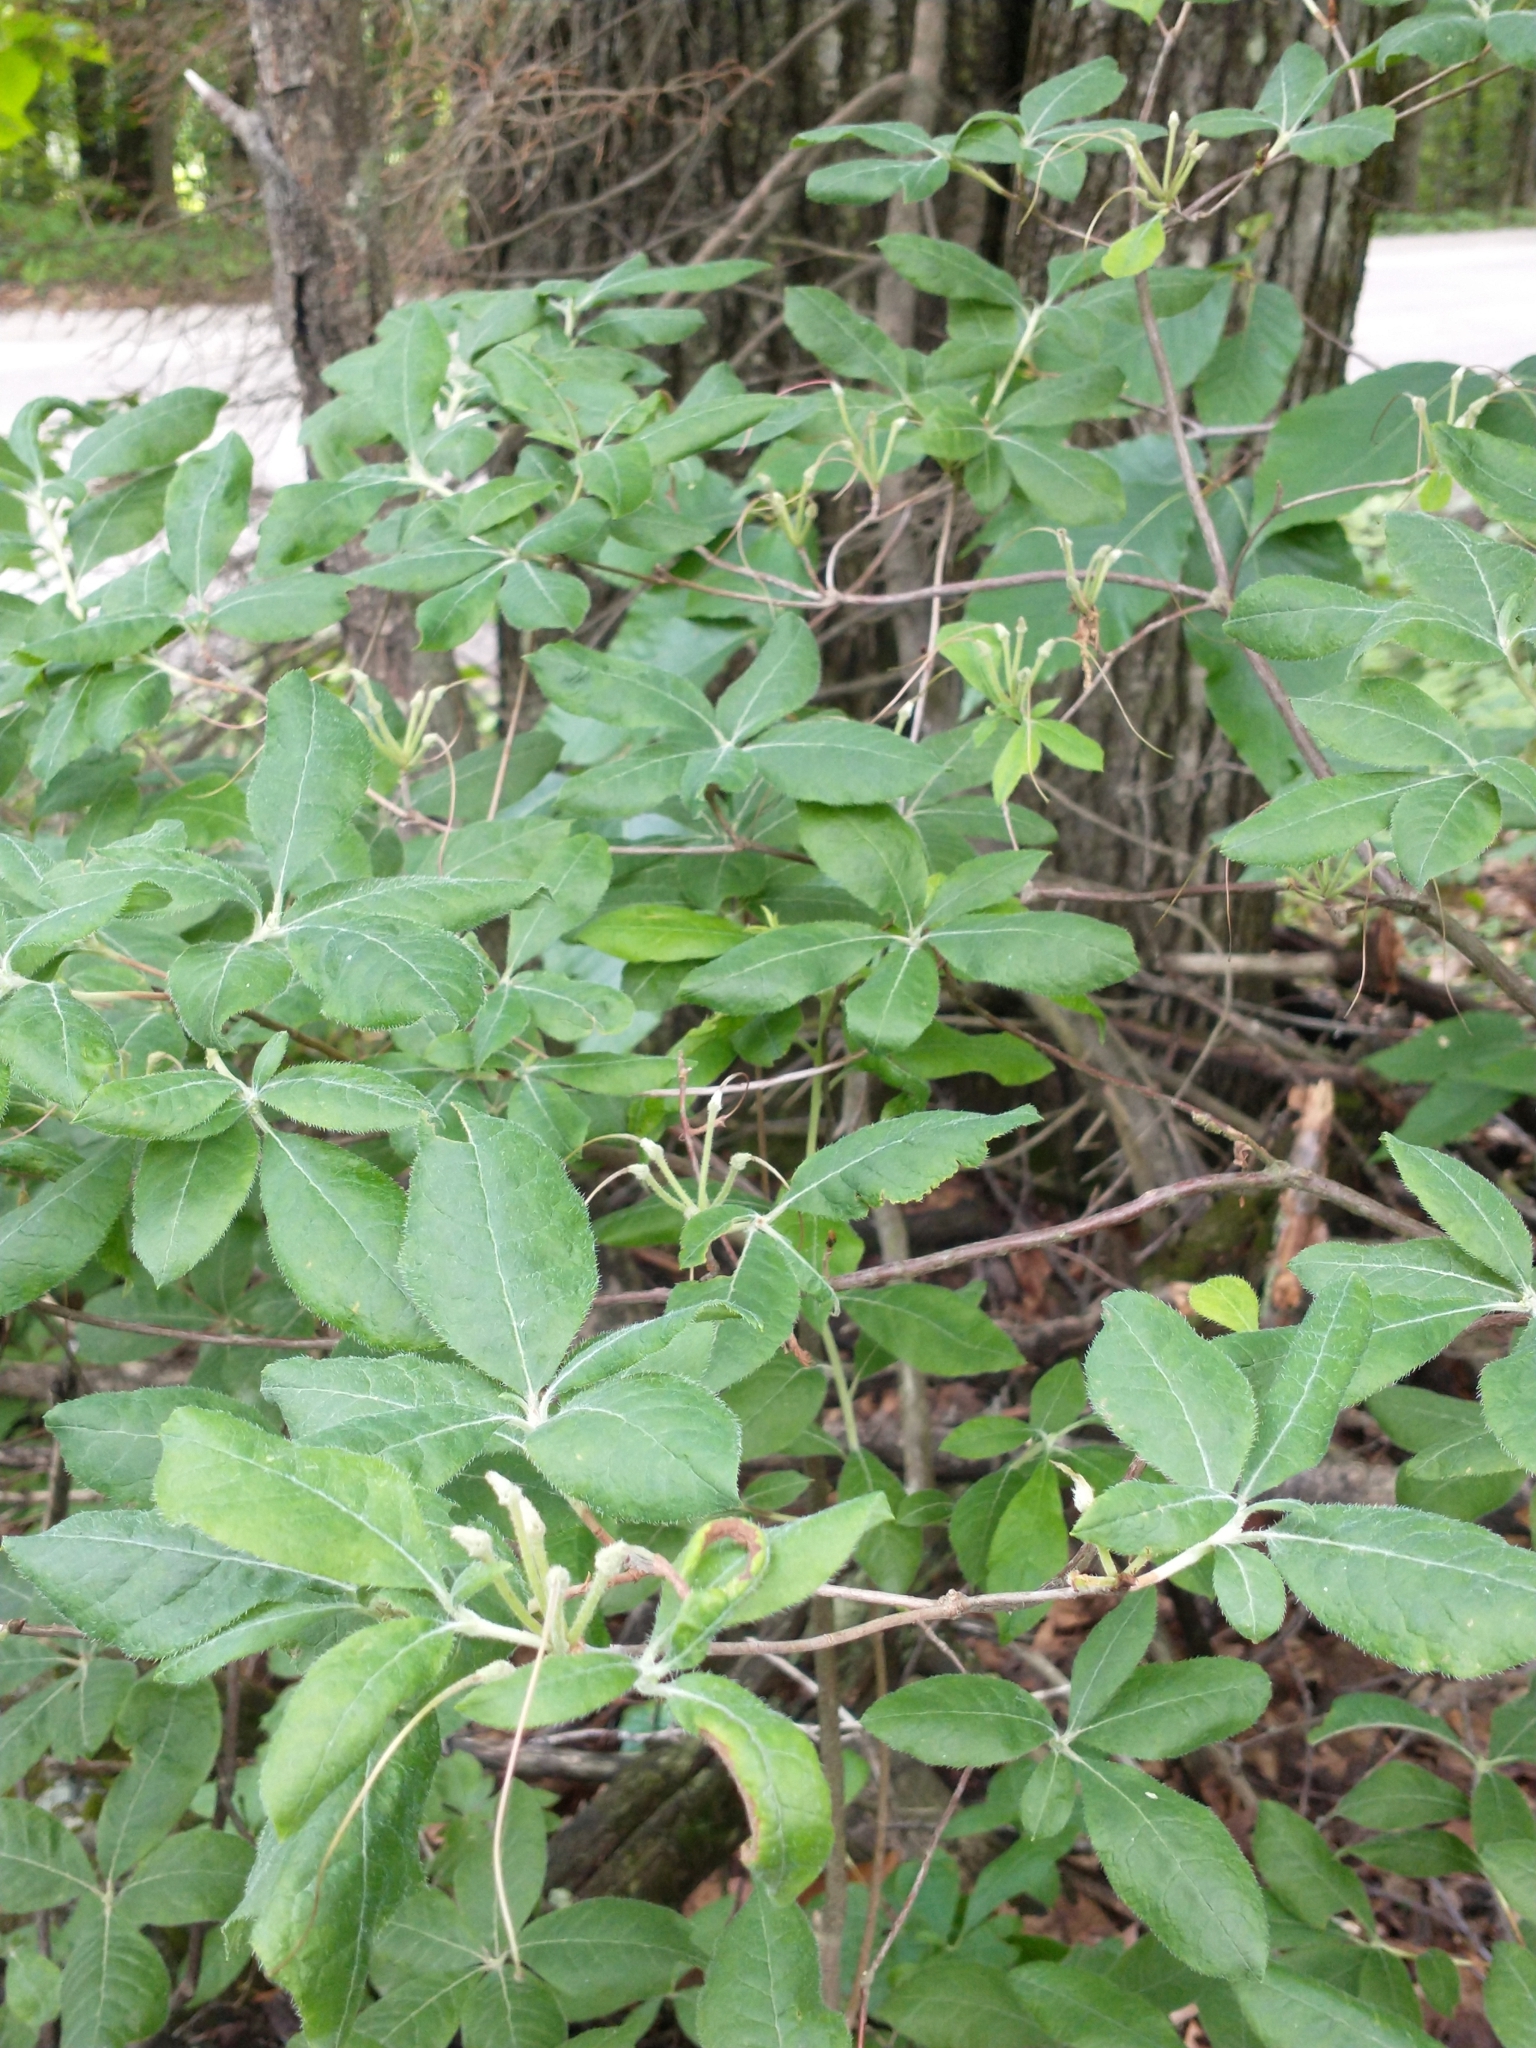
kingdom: Plantae
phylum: Tracheophyta
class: Magnoliopsida
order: Ericales
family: Ericaceae
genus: Rhododendron
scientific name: Rhododendron roseum
